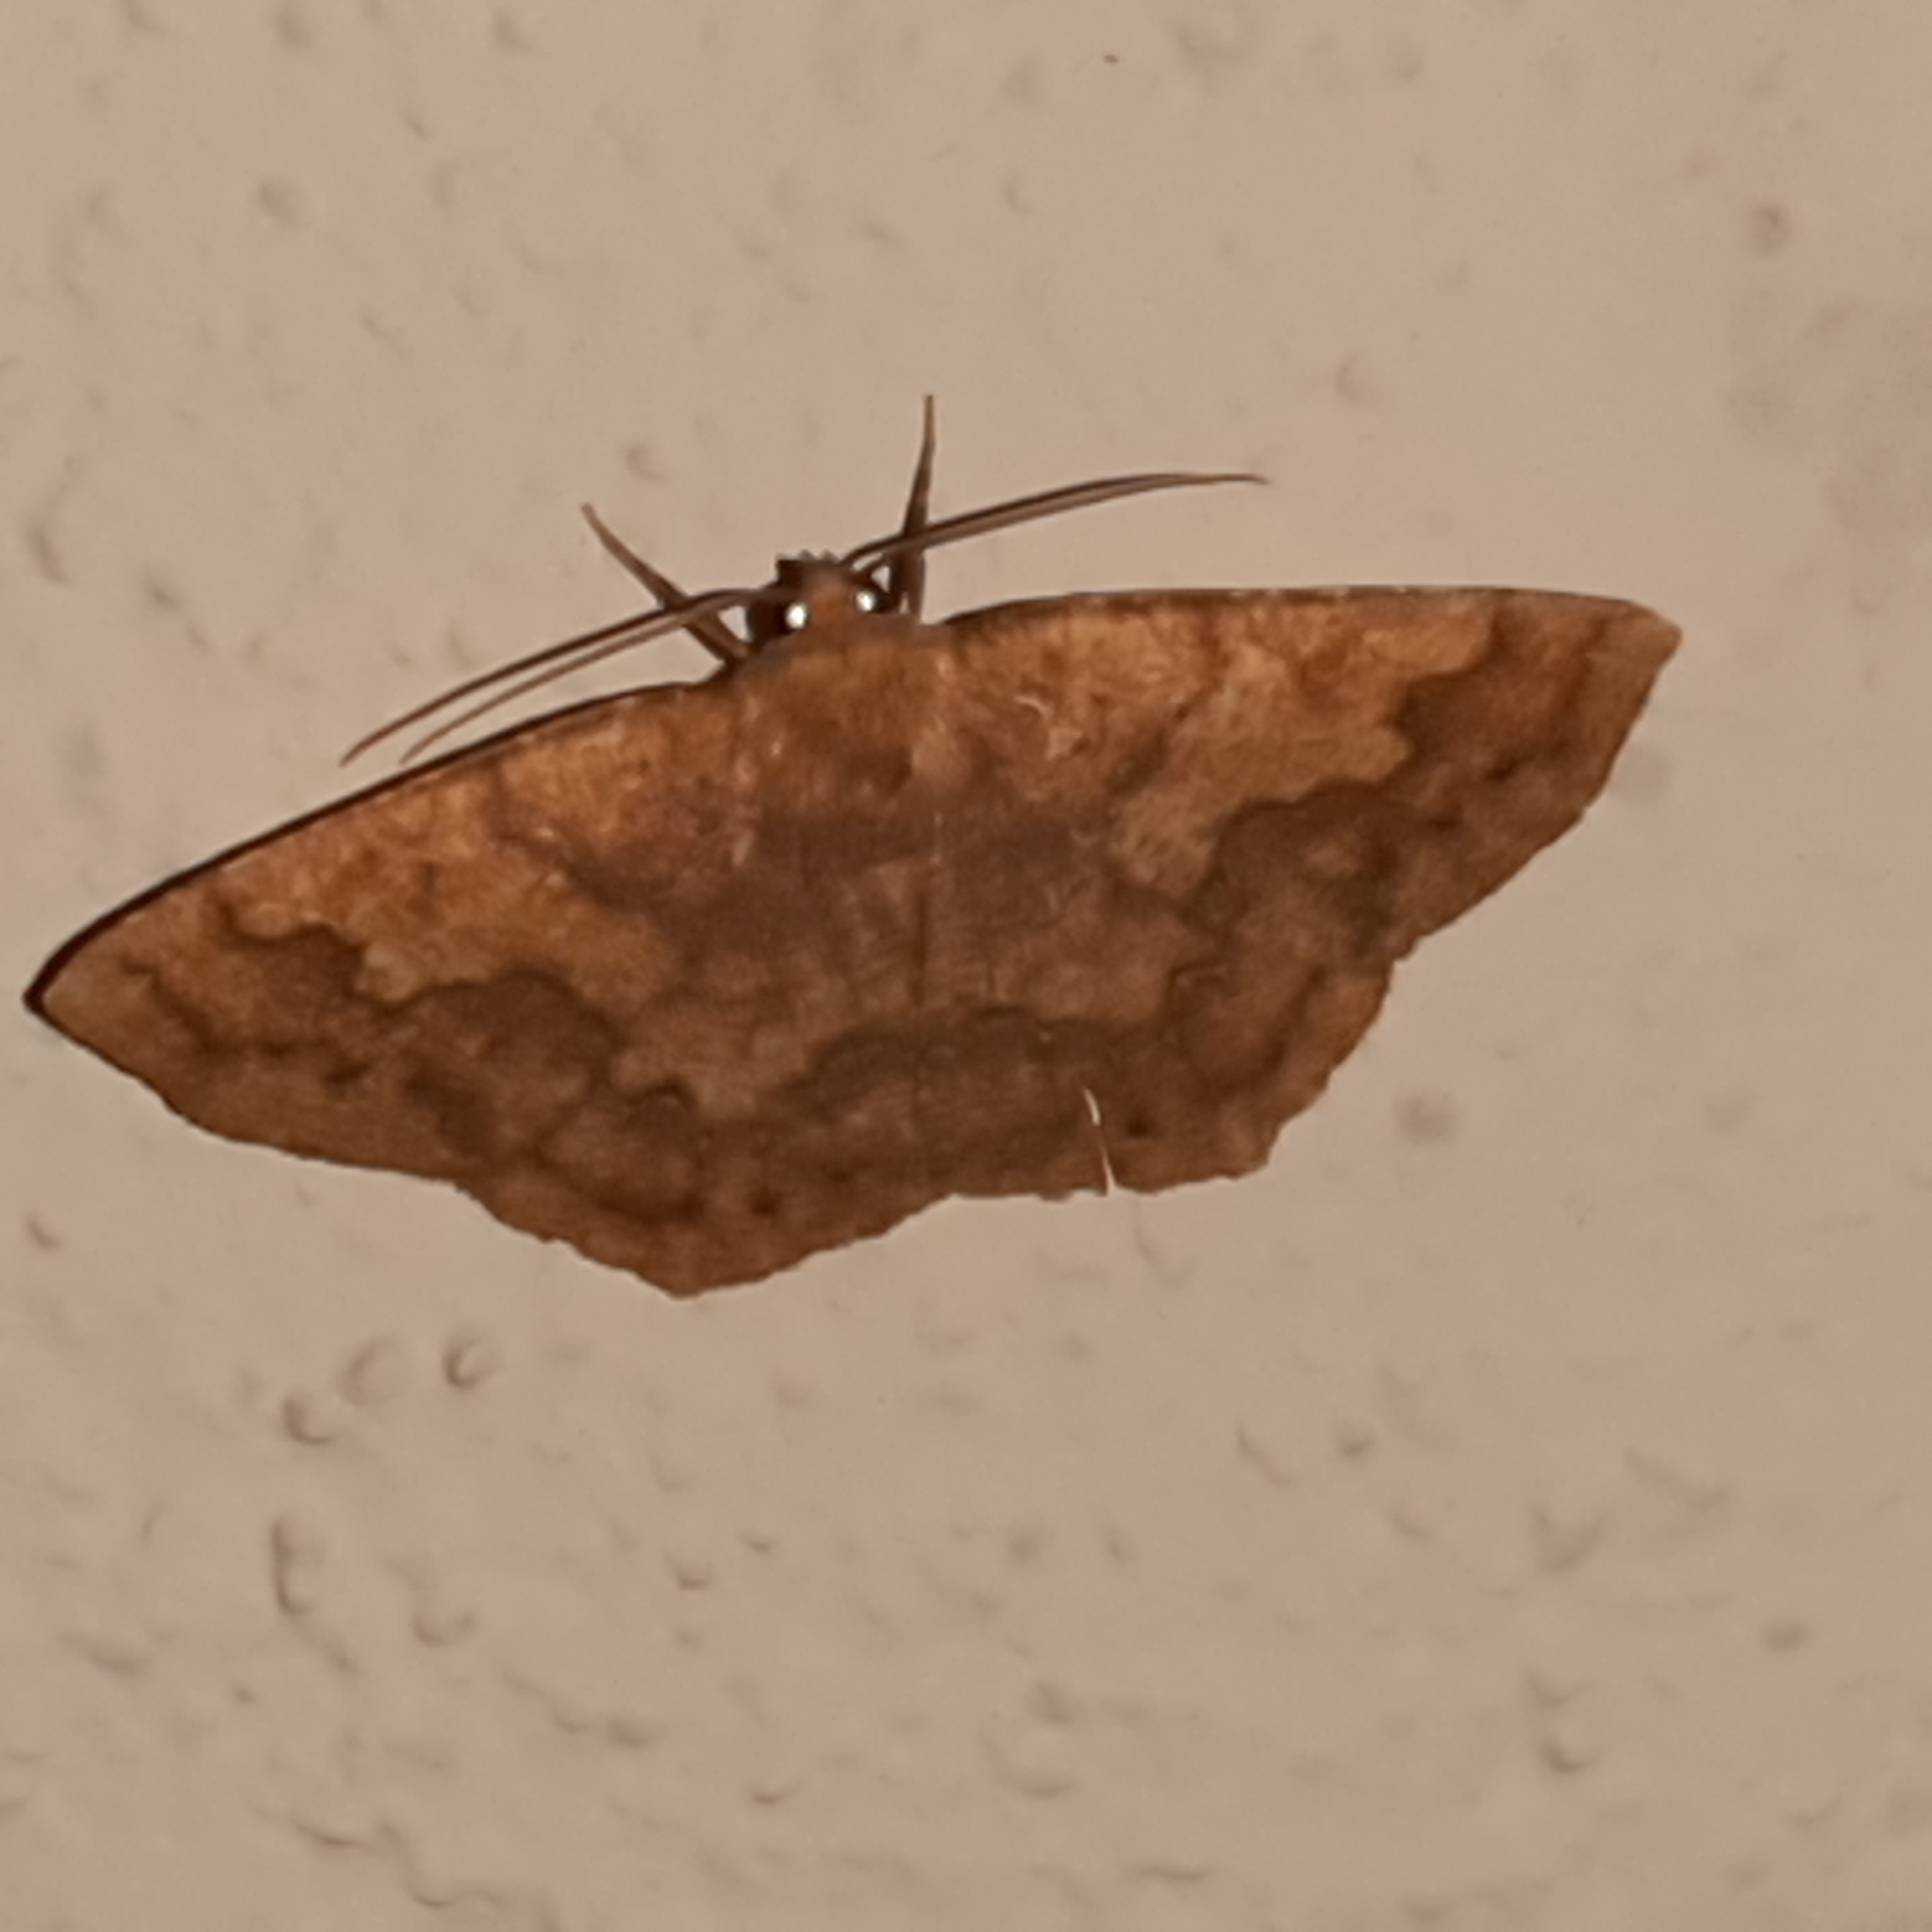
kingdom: Animalia
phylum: Arthropoda
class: Insecta
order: Lepidoptera
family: Geometridae
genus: Periclina
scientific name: Periclina merana
